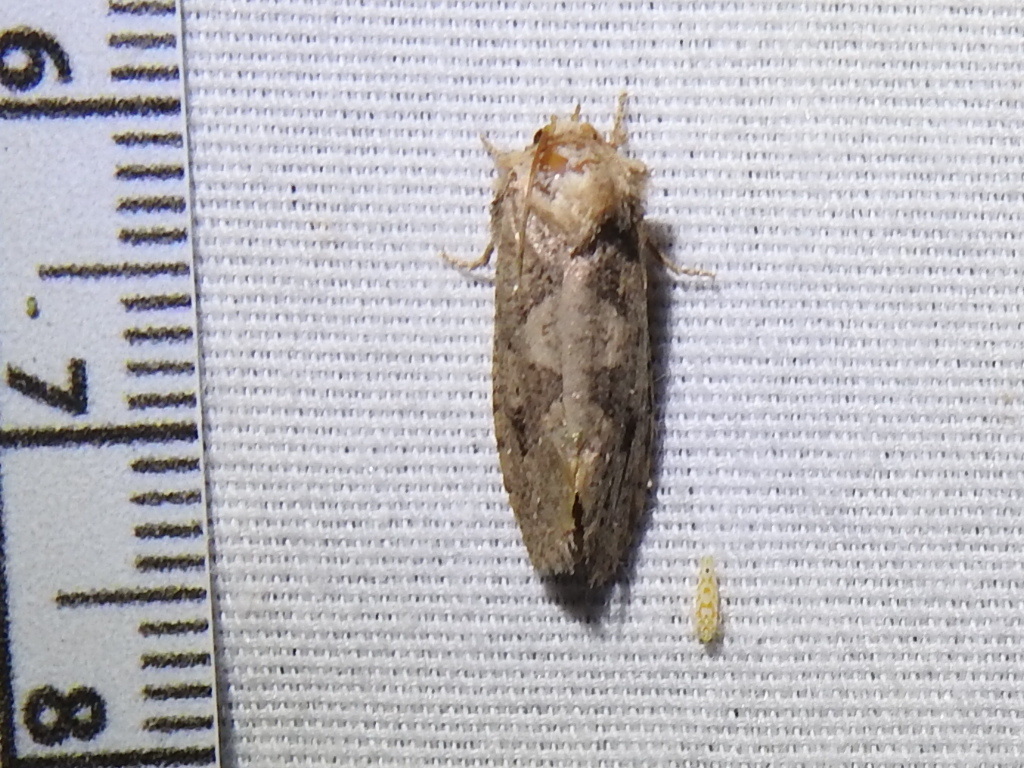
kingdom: Animalia
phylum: Arthropoda
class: Insecta
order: Lepidoptera
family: Tineidae
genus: Acrolophus
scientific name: Acrolophus arcanella
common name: Arcane grass tubeworm moth
